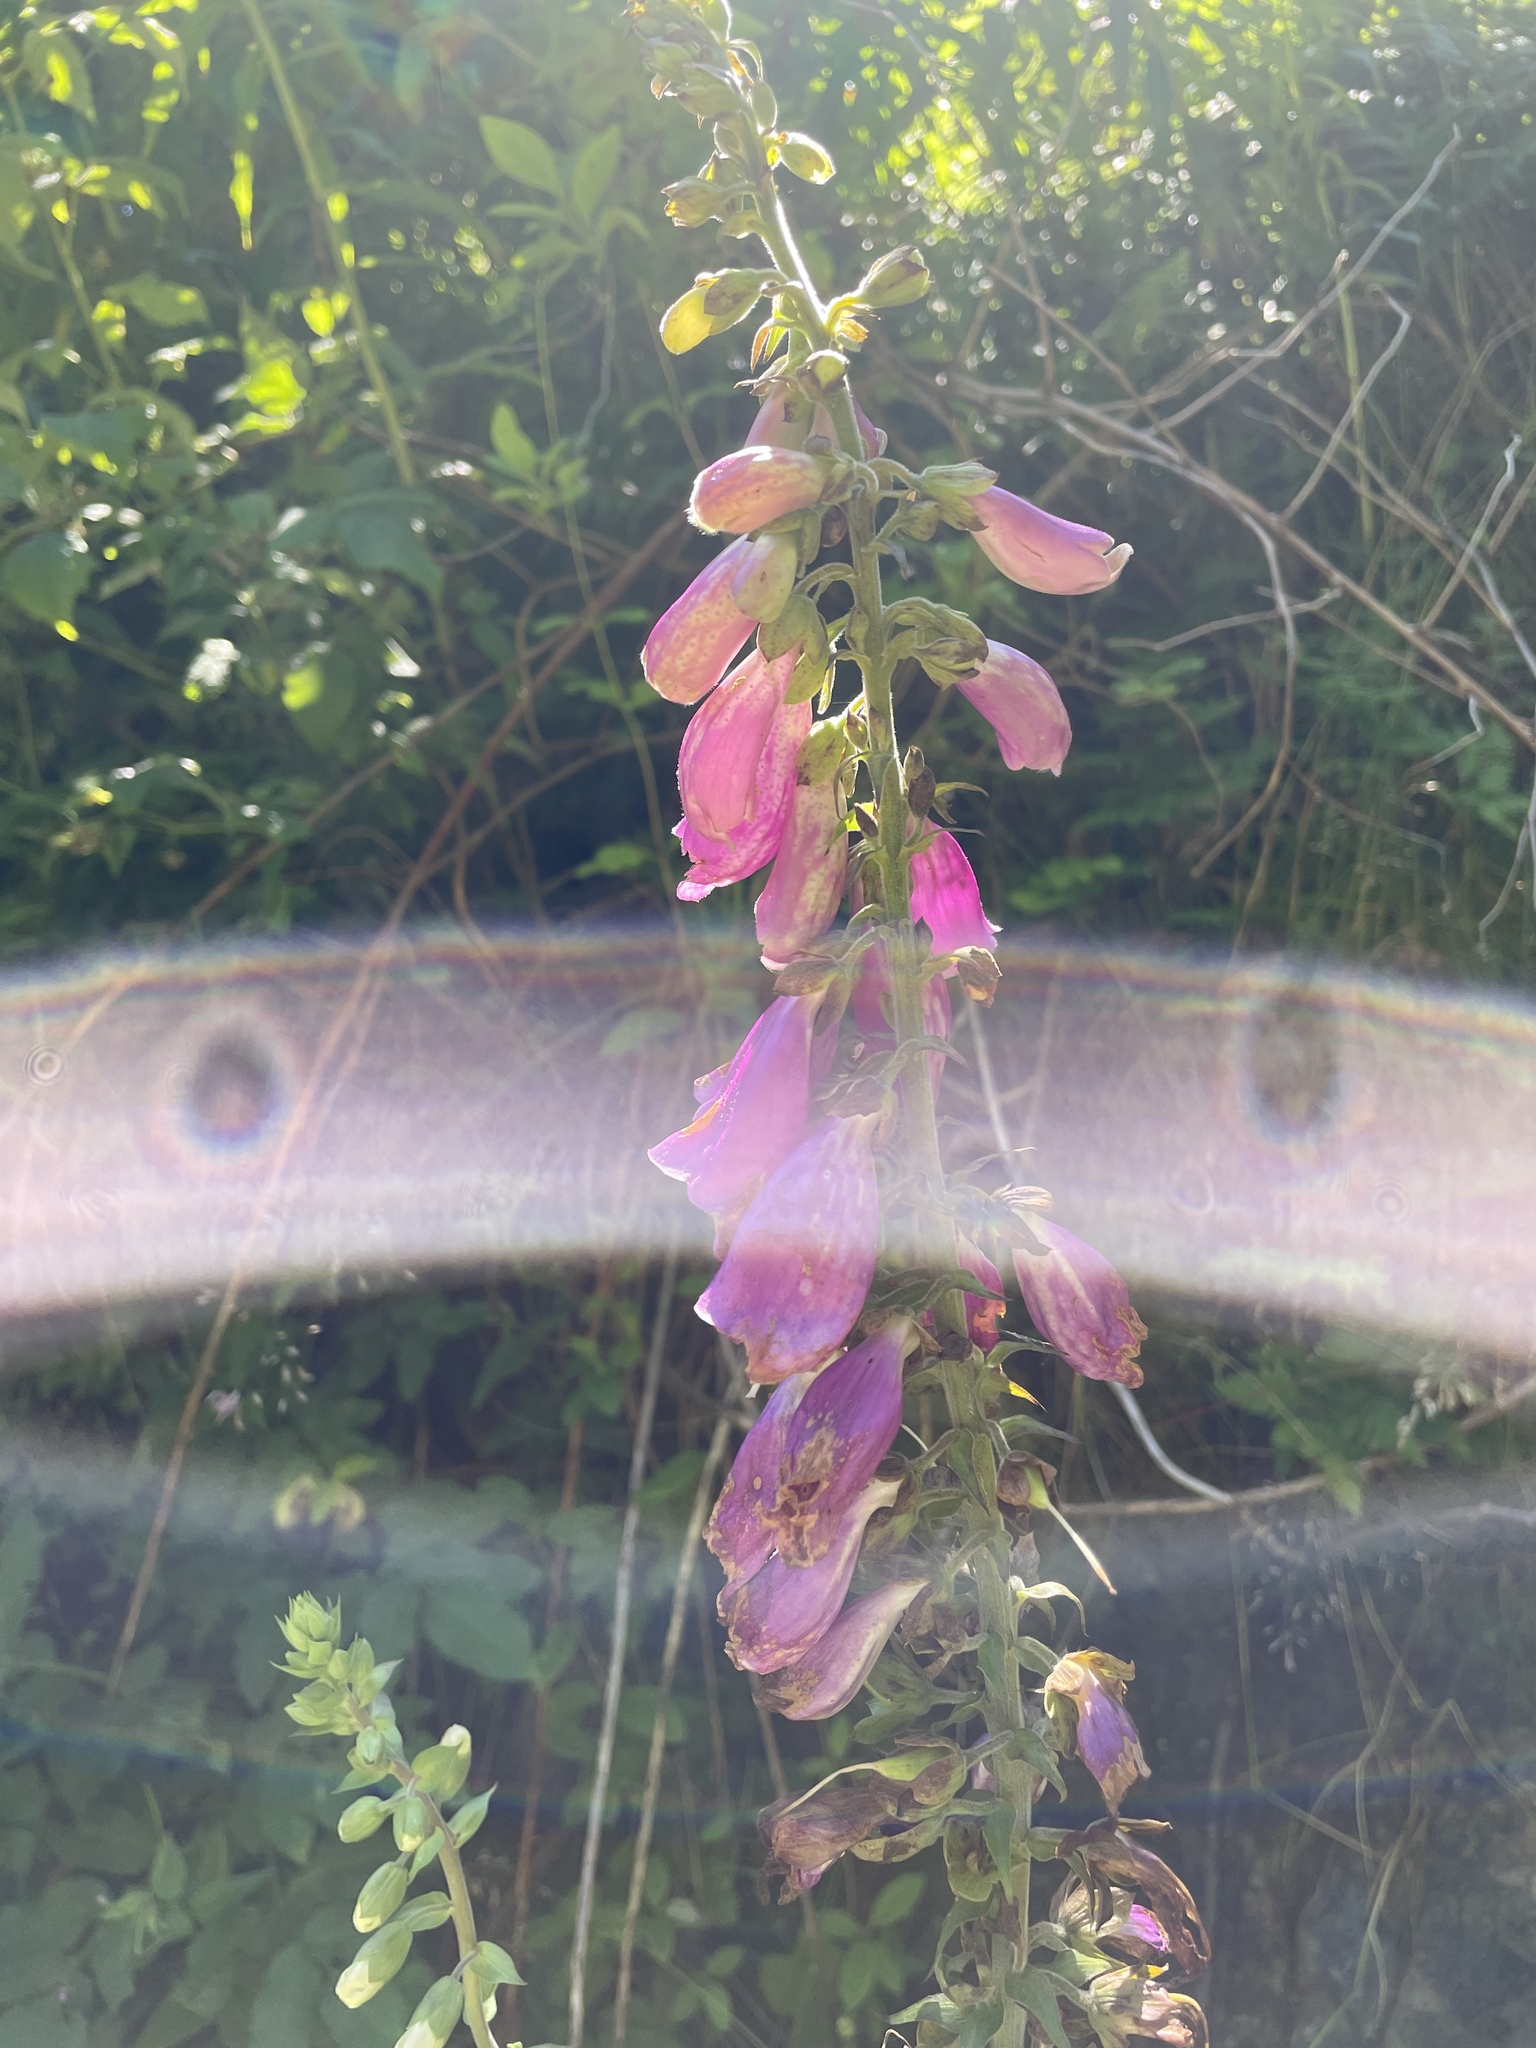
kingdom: Plantae
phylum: Tracheophyta
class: Magnoliopsida
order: Lamiales
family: Plantaginaceae
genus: Digitalis
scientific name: Digitalis purpurea
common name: Foxglove
